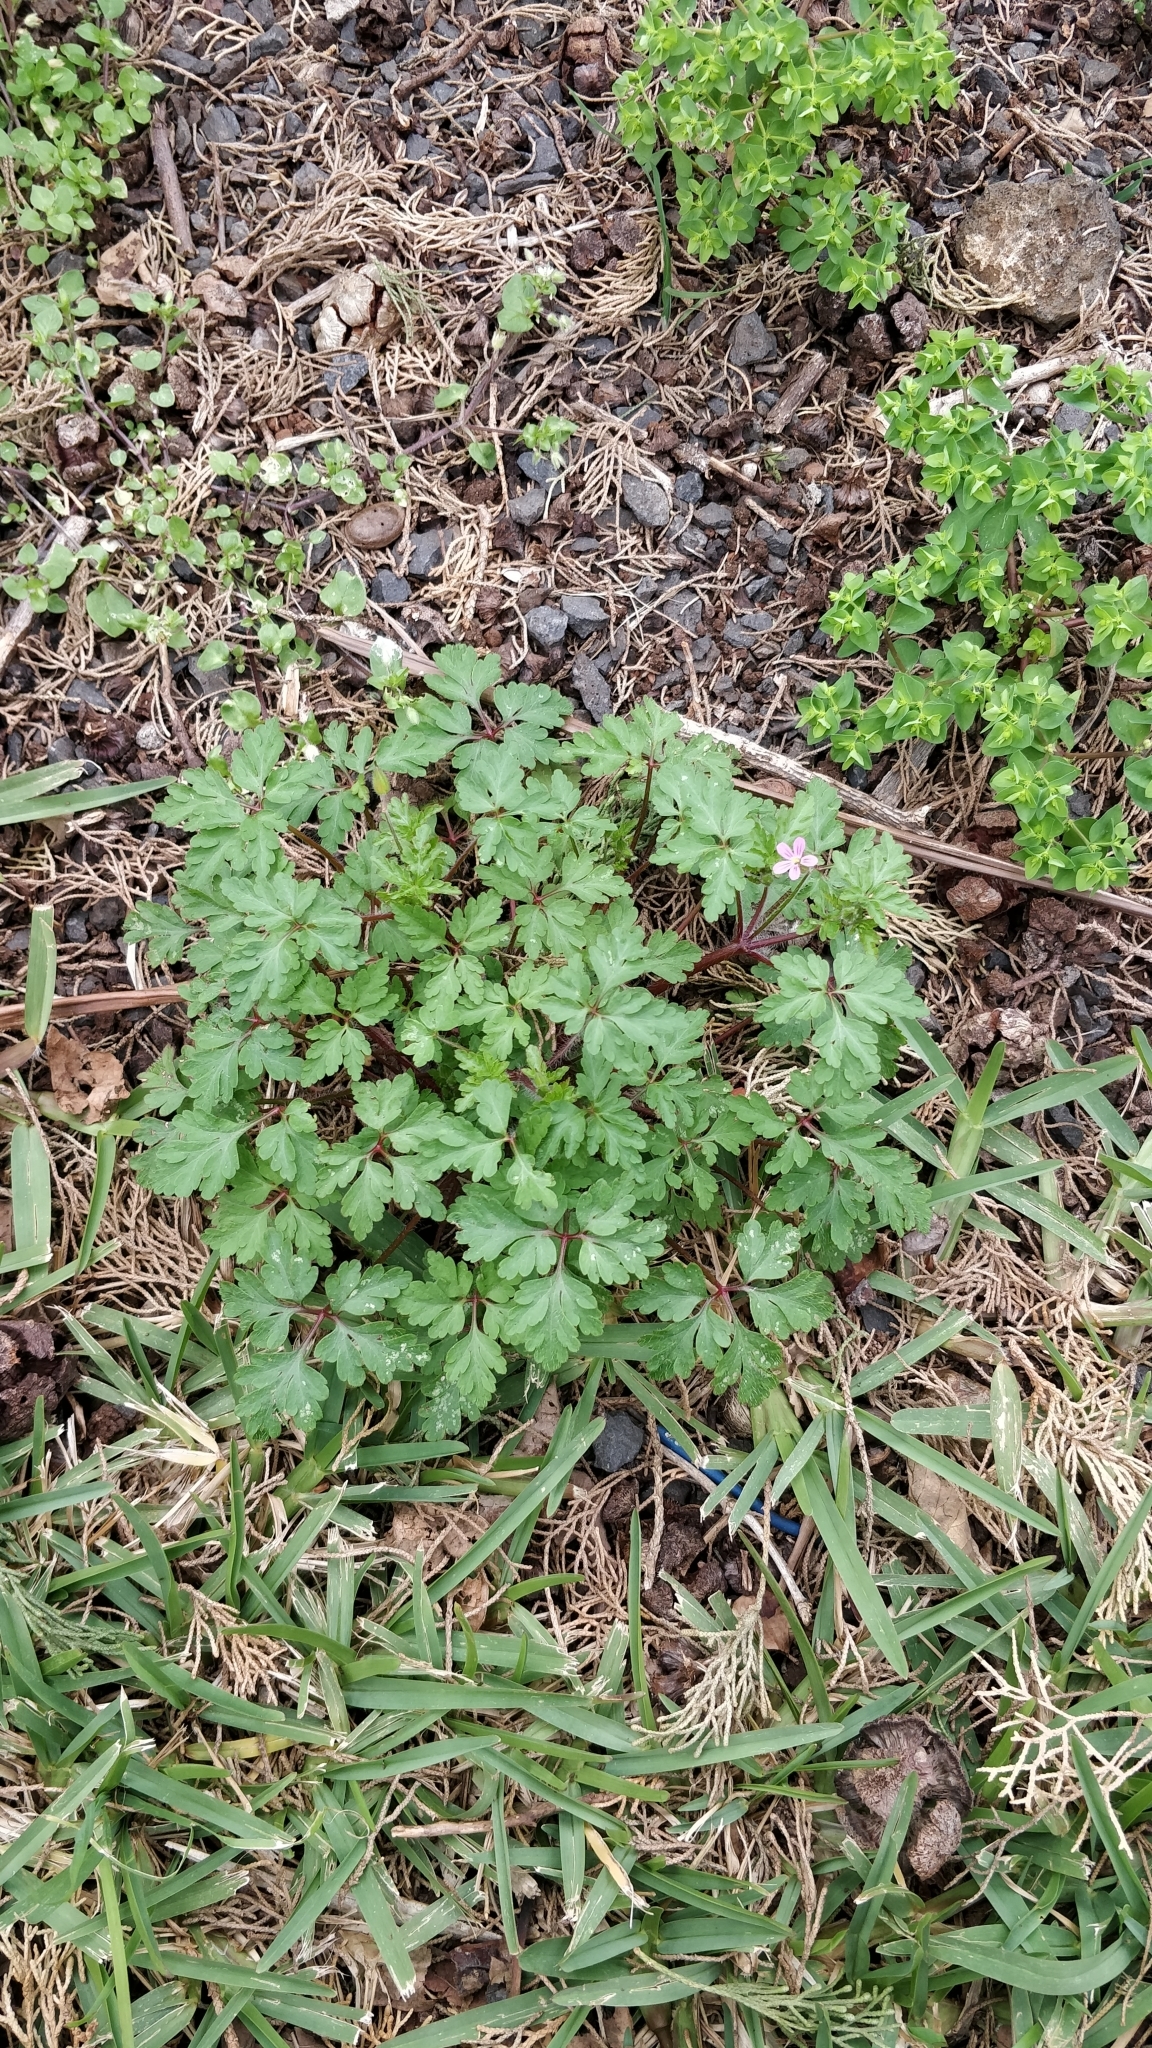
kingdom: Plantae
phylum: Tracheophyta
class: Magnoliopsida
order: Geraniales
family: Geraniaceae
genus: Geranium
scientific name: Geranium purpureum
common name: Little-robin
